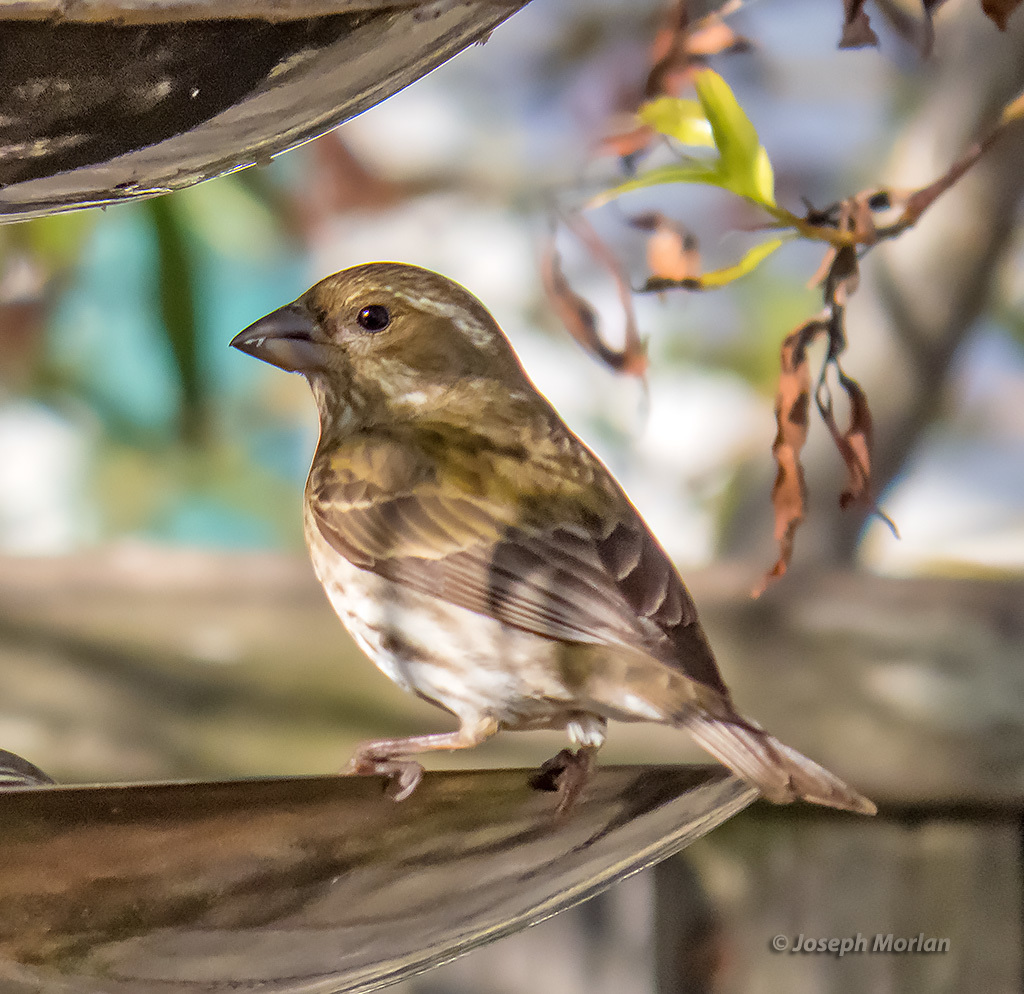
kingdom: Animalia
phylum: Chordata
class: Aves
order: Passeriformes
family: Fringillidae
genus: Haemorhous
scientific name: Haemorhous purpureus
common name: Purple finch
